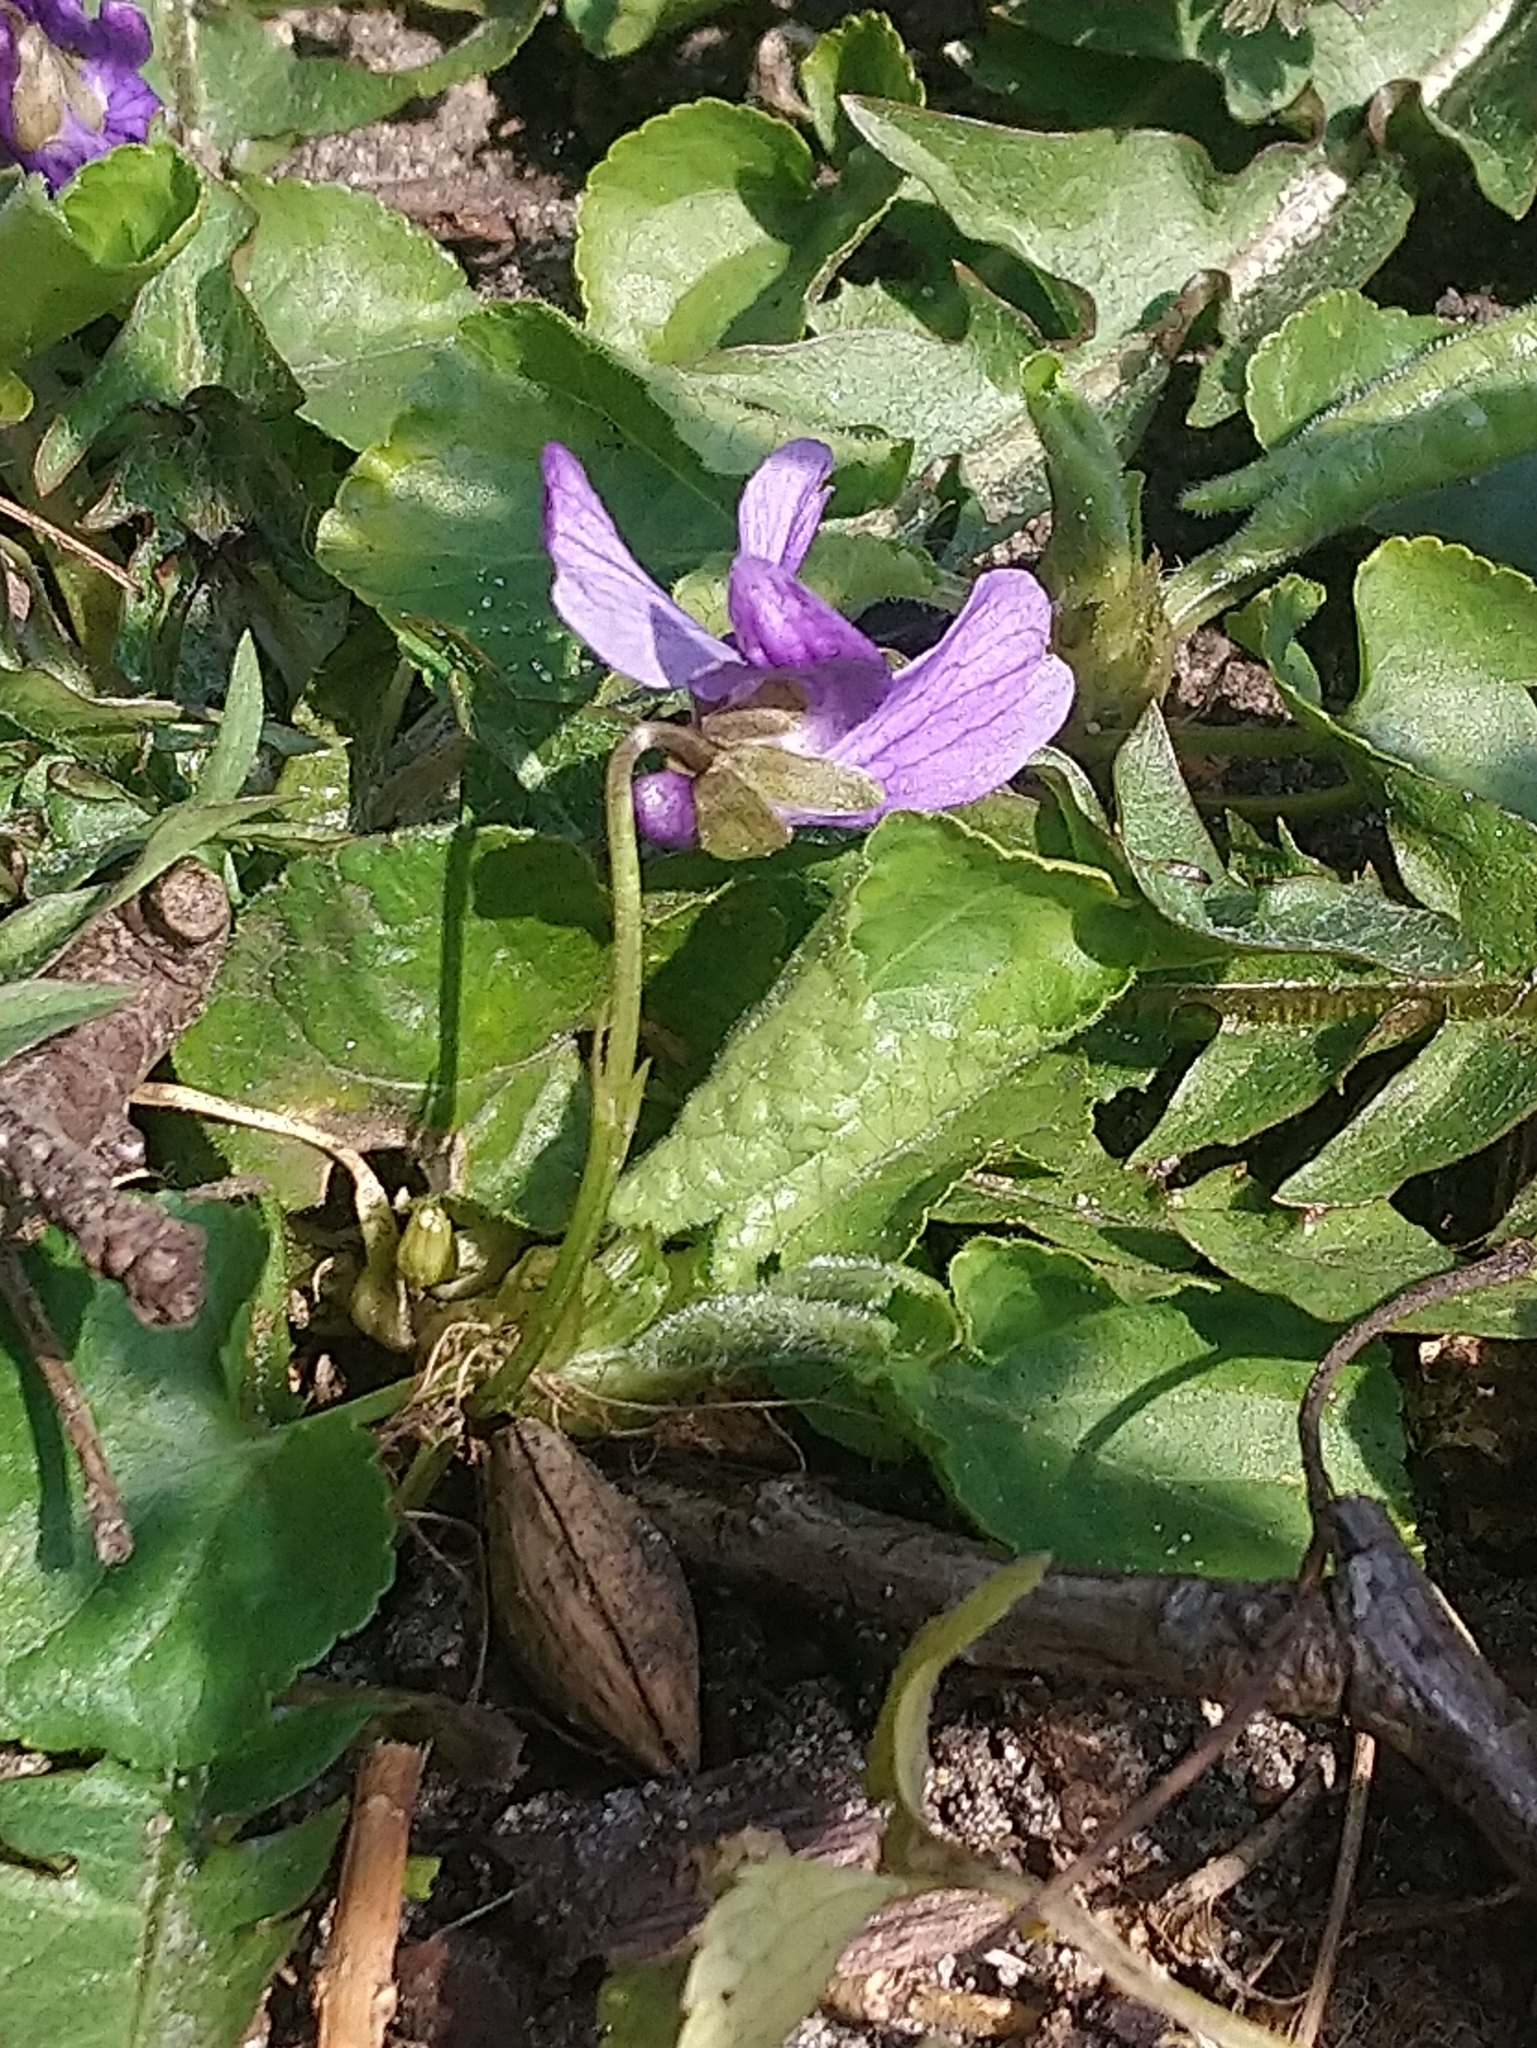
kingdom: Plantae
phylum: Tracheophyta
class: Magnoliopsida
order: Malpighiales
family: Violaceae
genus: Viola
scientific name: Viola odorata
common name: Sweet violet
